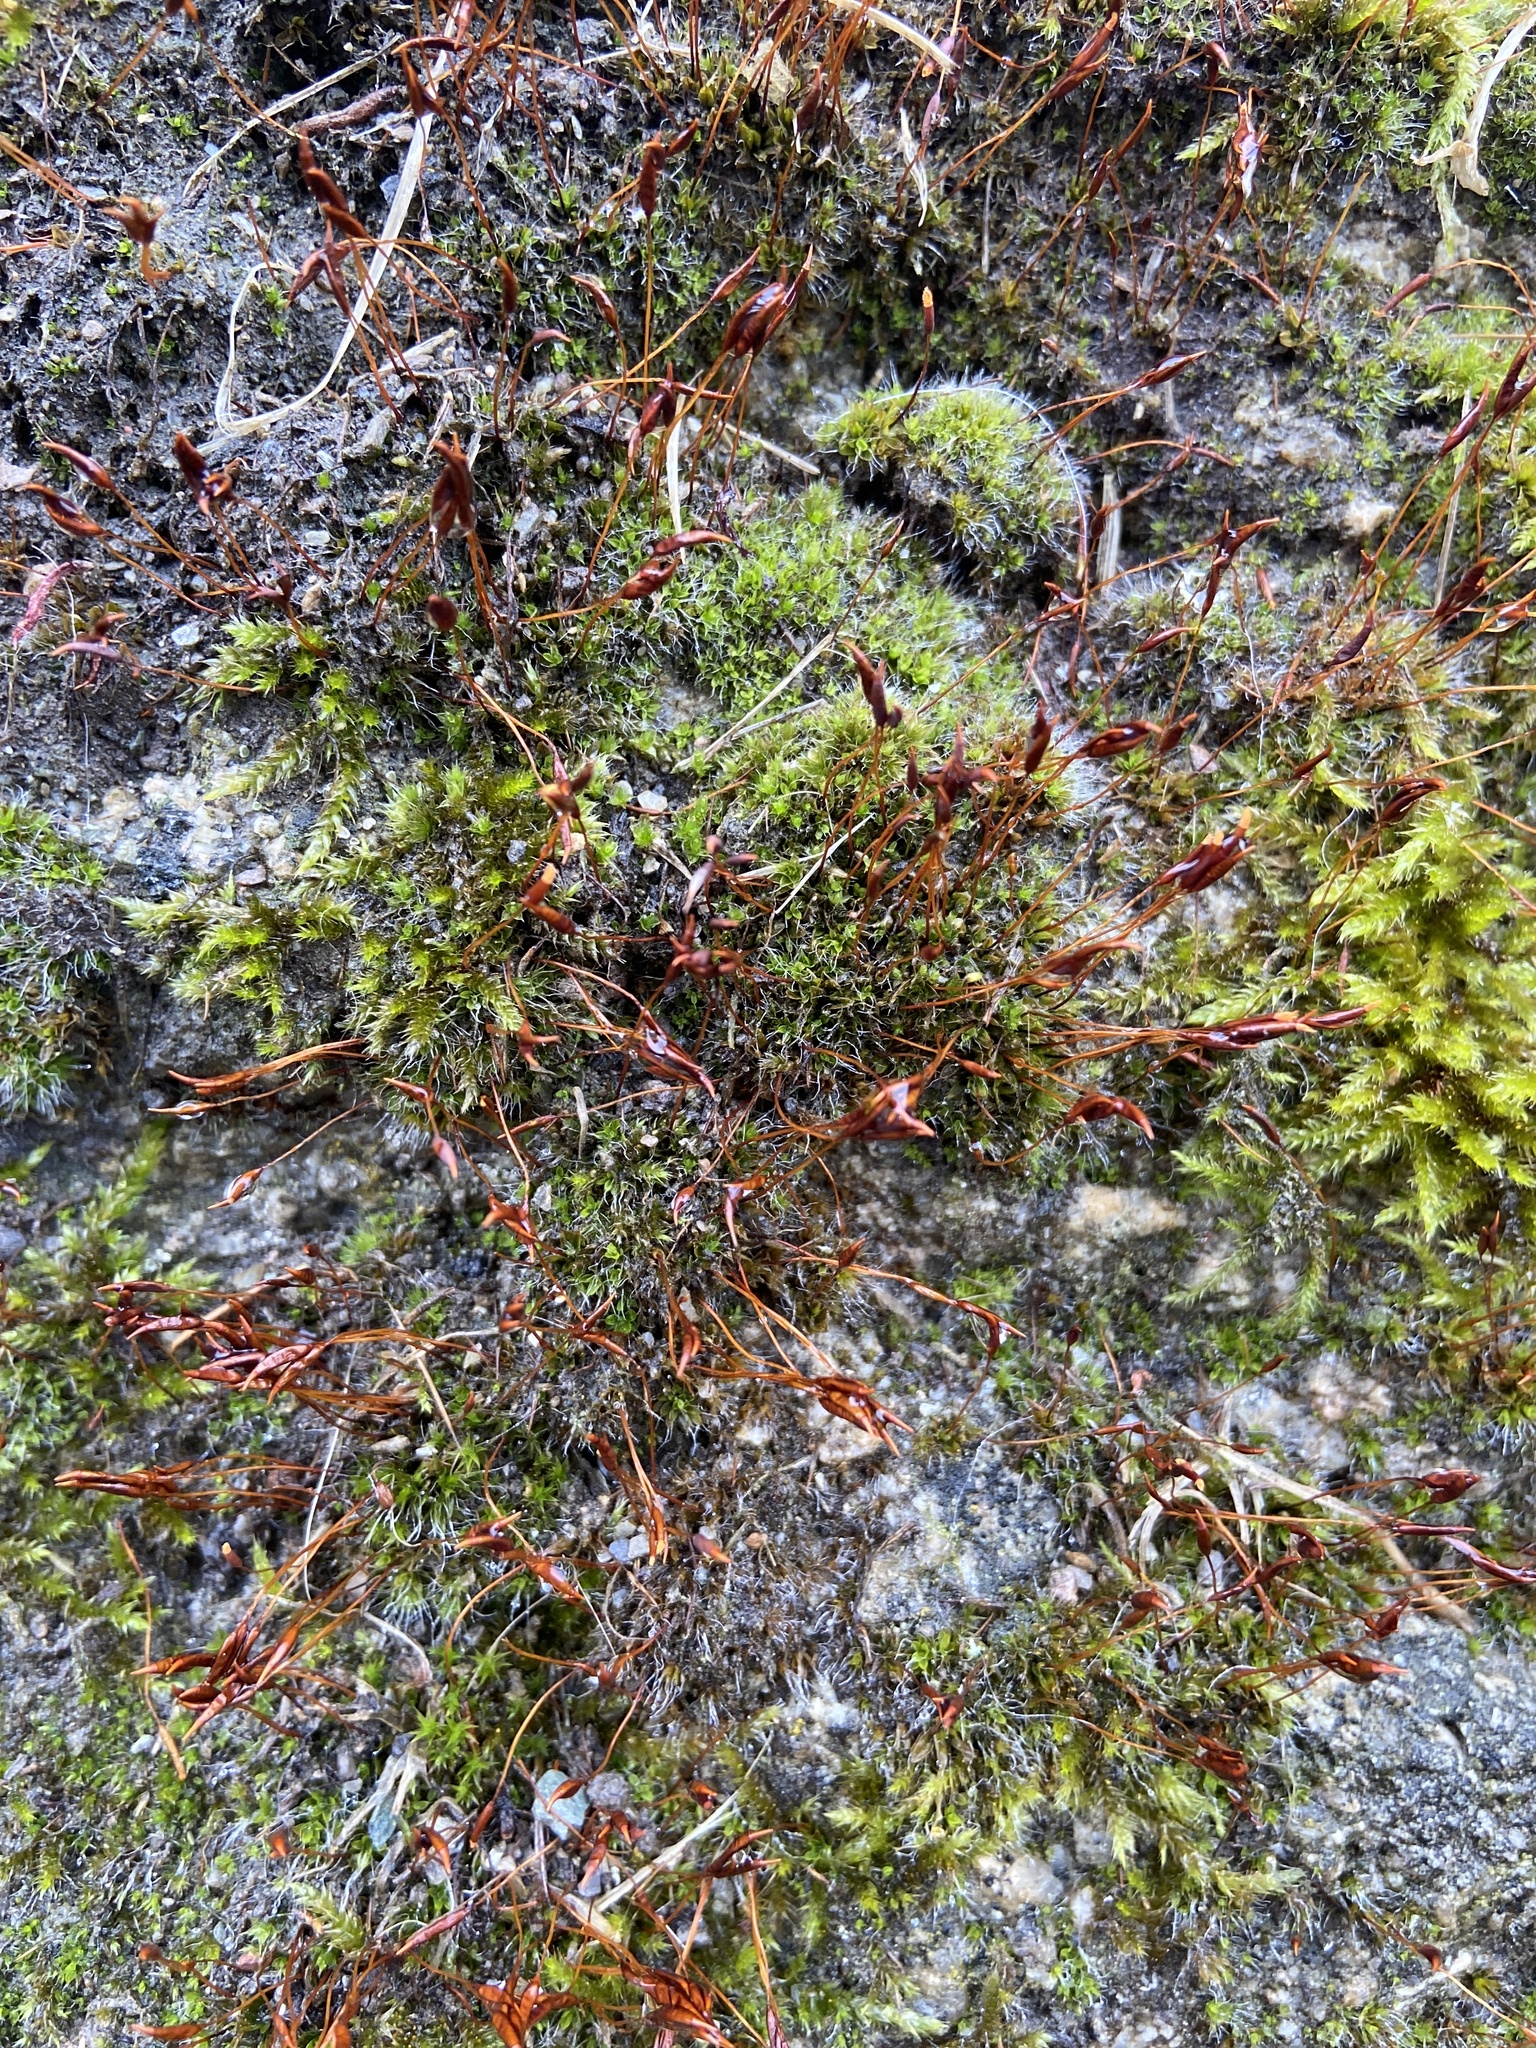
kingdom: Plantae
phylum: Bryophyta
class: Bryopsida
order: Pottiales
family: Pottiaceae
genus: Tortula
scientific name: Tortula muralis
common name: Wall screw-moss
